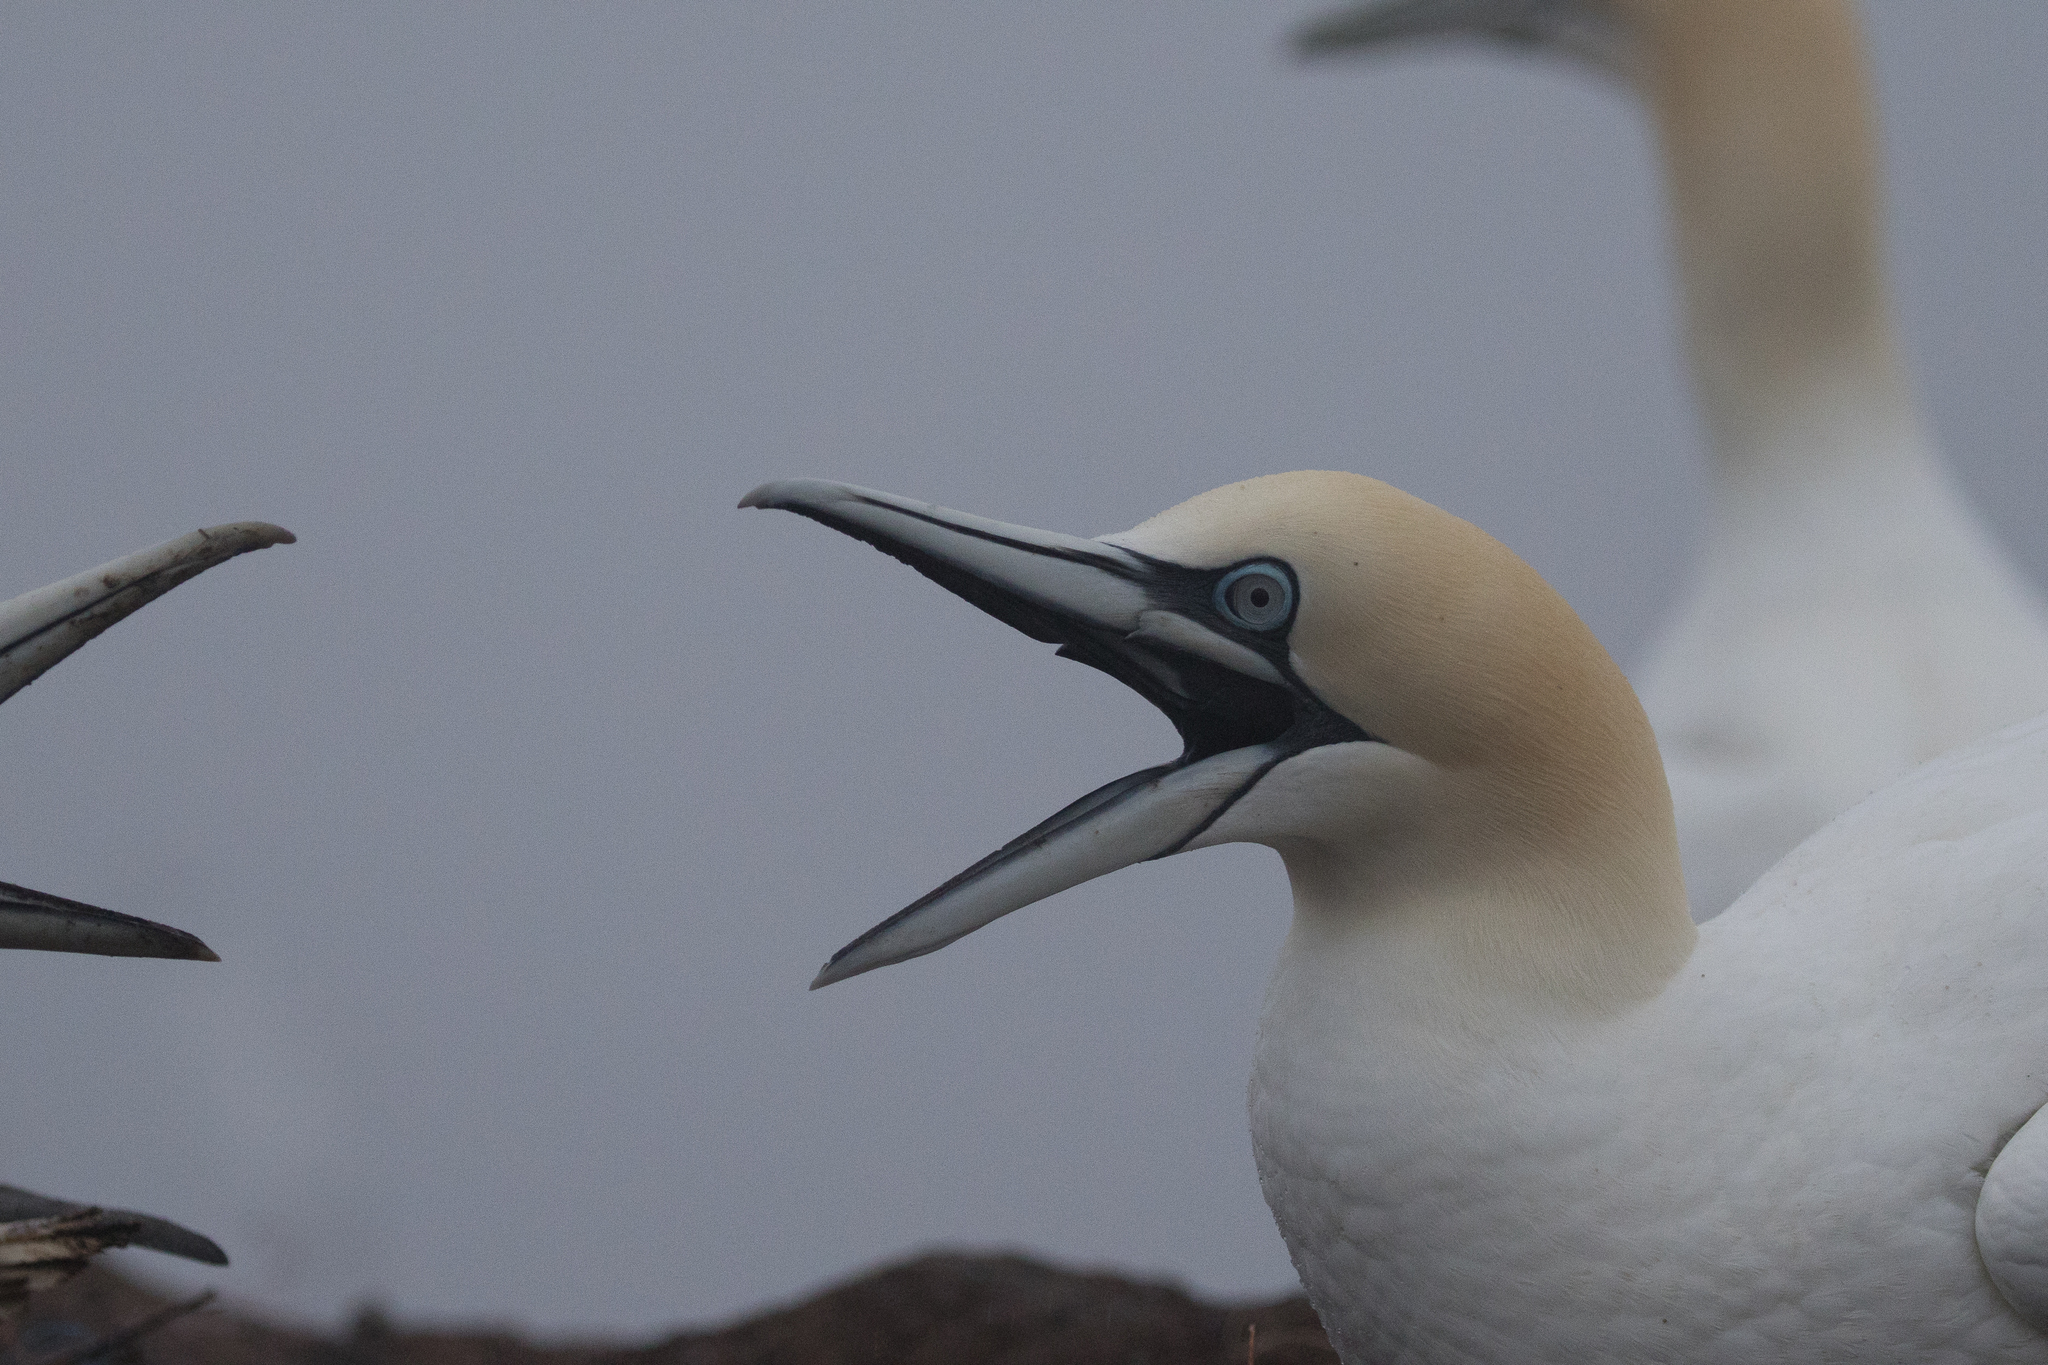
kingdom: Animalia
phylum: Chordata
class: Aves
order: Suliformes
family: Sulidae
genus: Morus
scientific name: Morus bassanus
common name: Northern gannet
